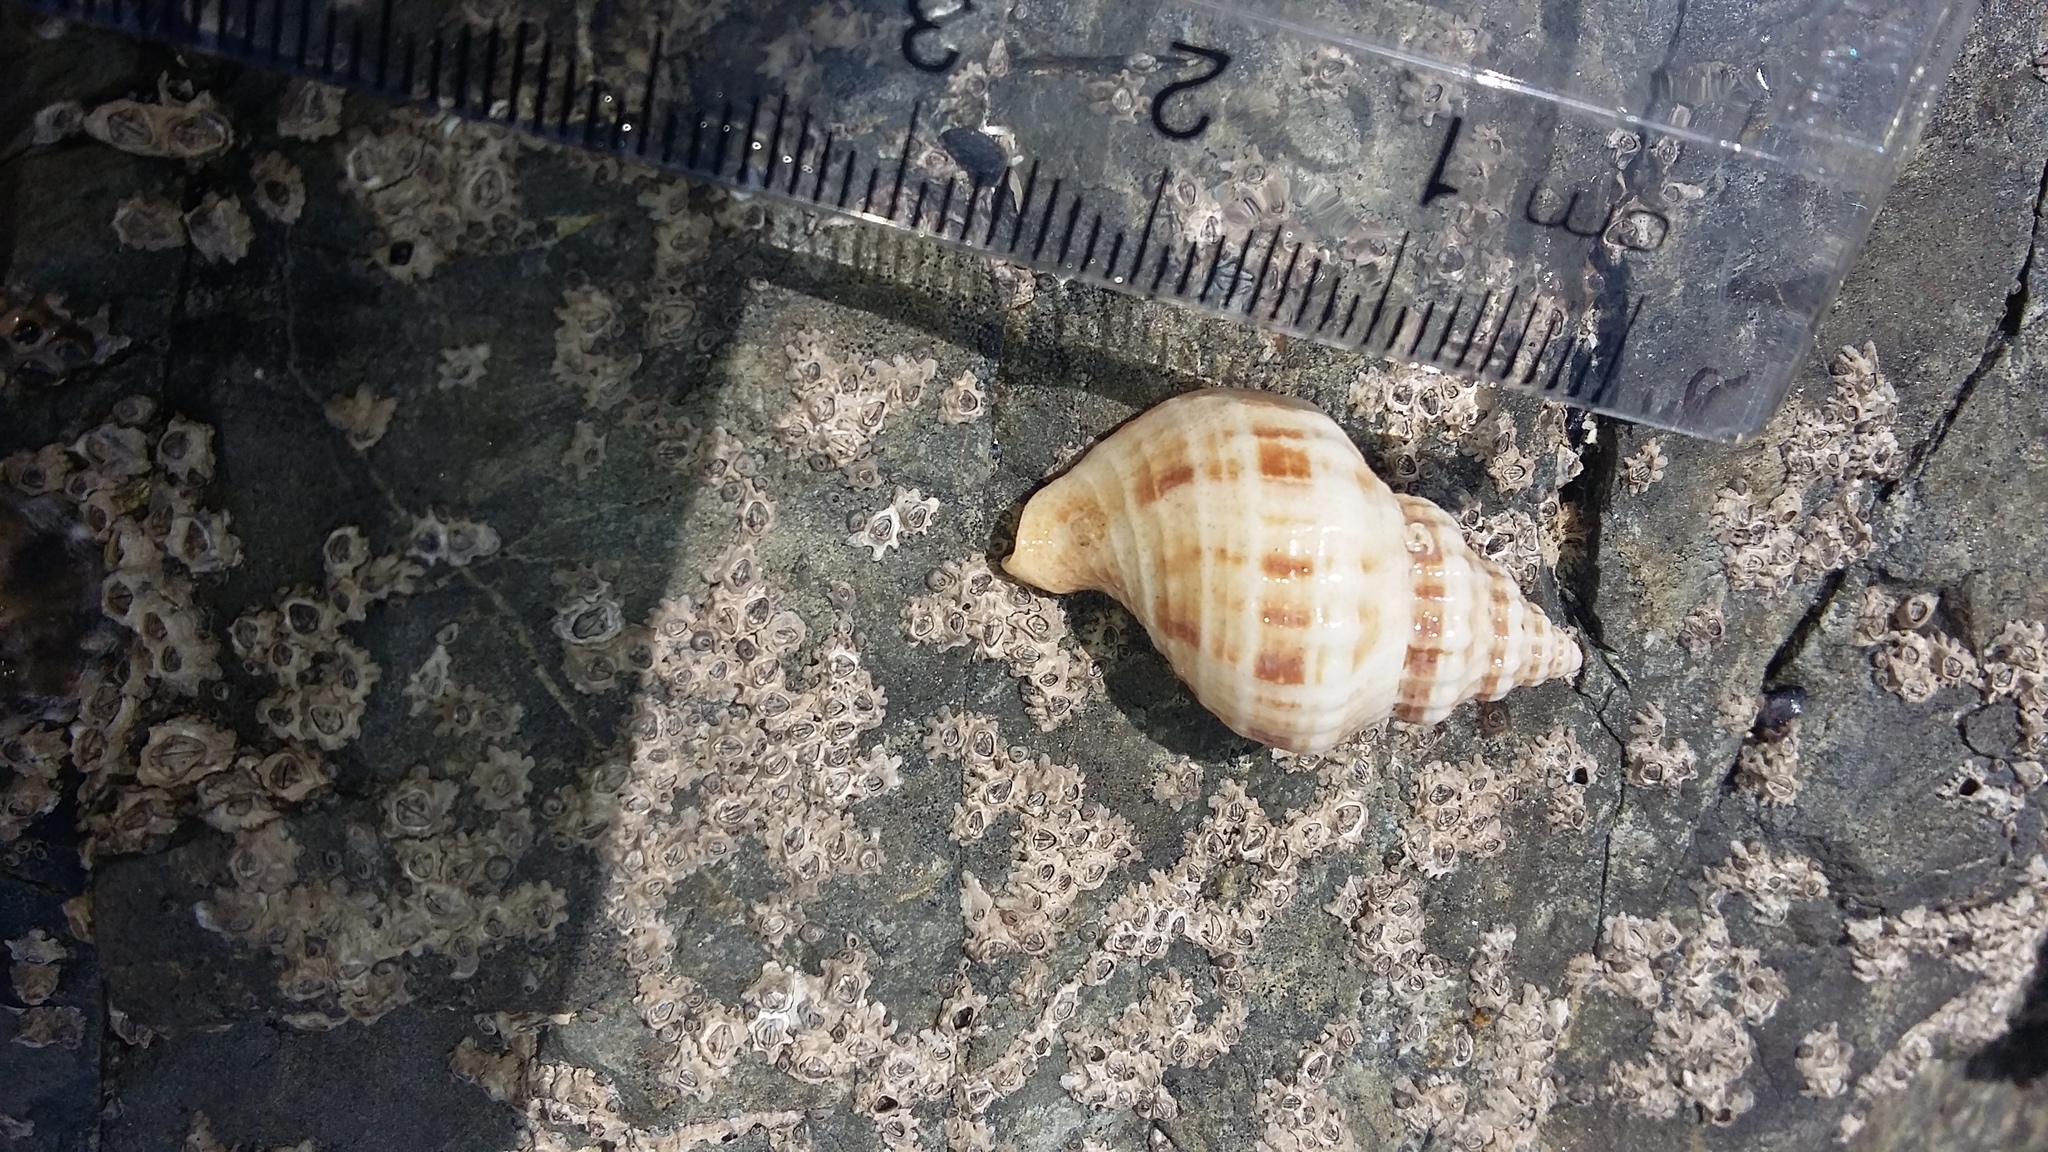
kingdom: Animalia
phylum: Mollusca
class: Gastropoda
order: Neogastropoda
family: Prosiphonidae
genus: Austrofusus
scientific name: Austrofusus glans
